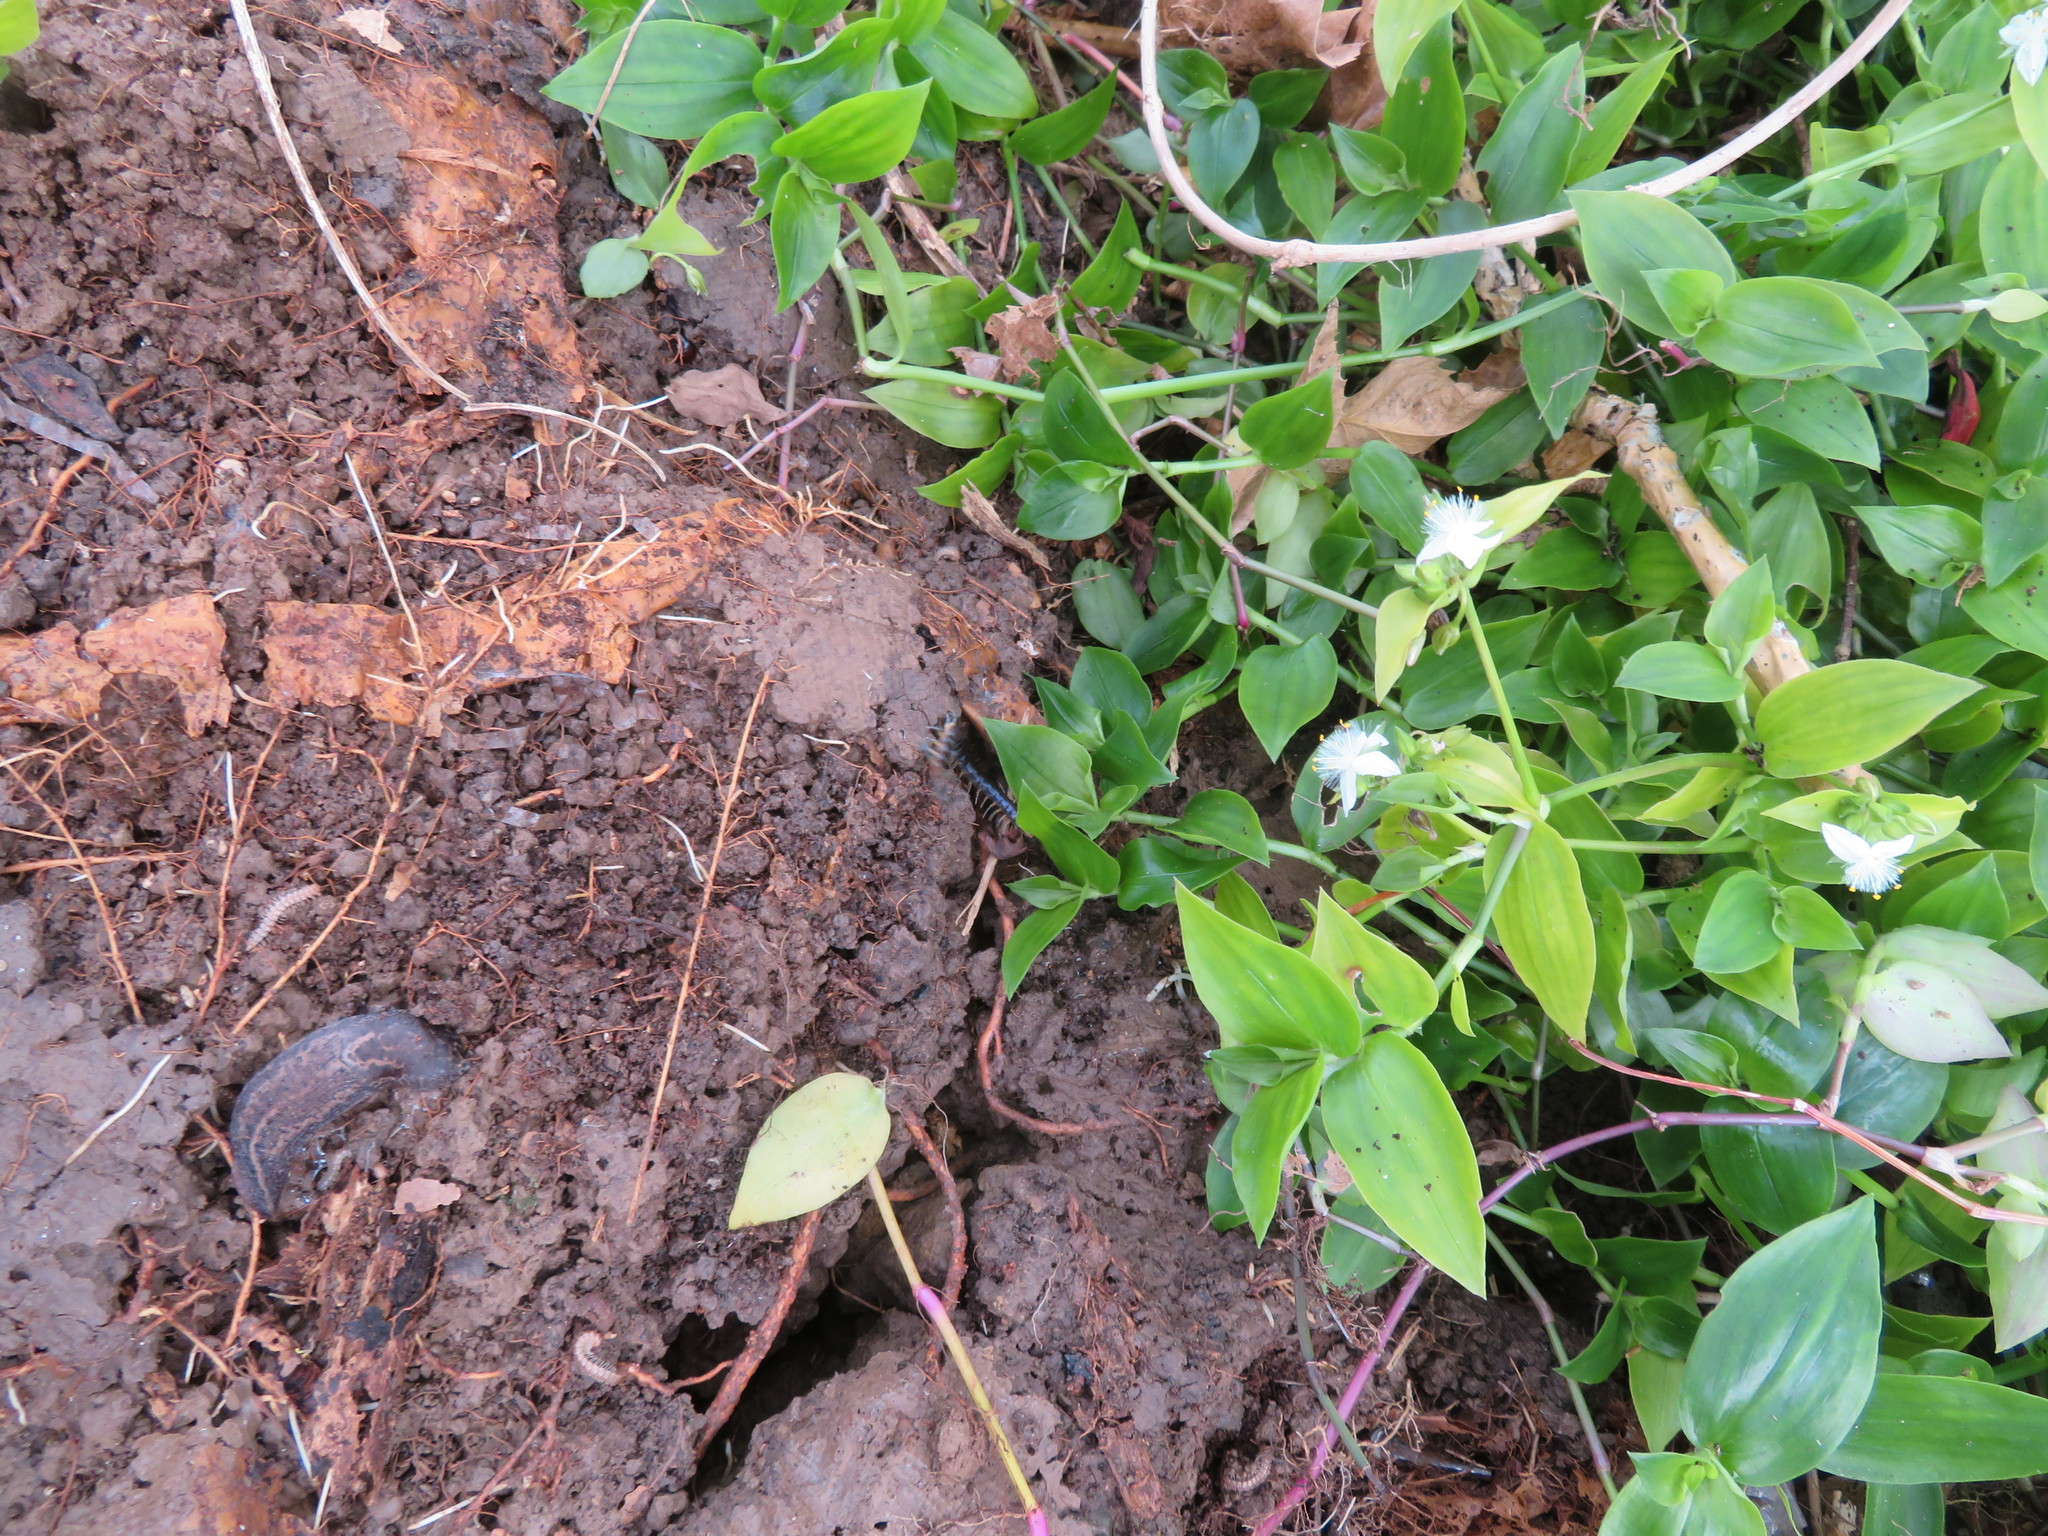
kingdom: Plantae
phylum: Tracheophyta
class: Liliopsida
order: Commelinales
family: Commelinaceae
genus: Tradescantia
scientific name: Tradescantia fluminensis
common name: Wandering-jew
